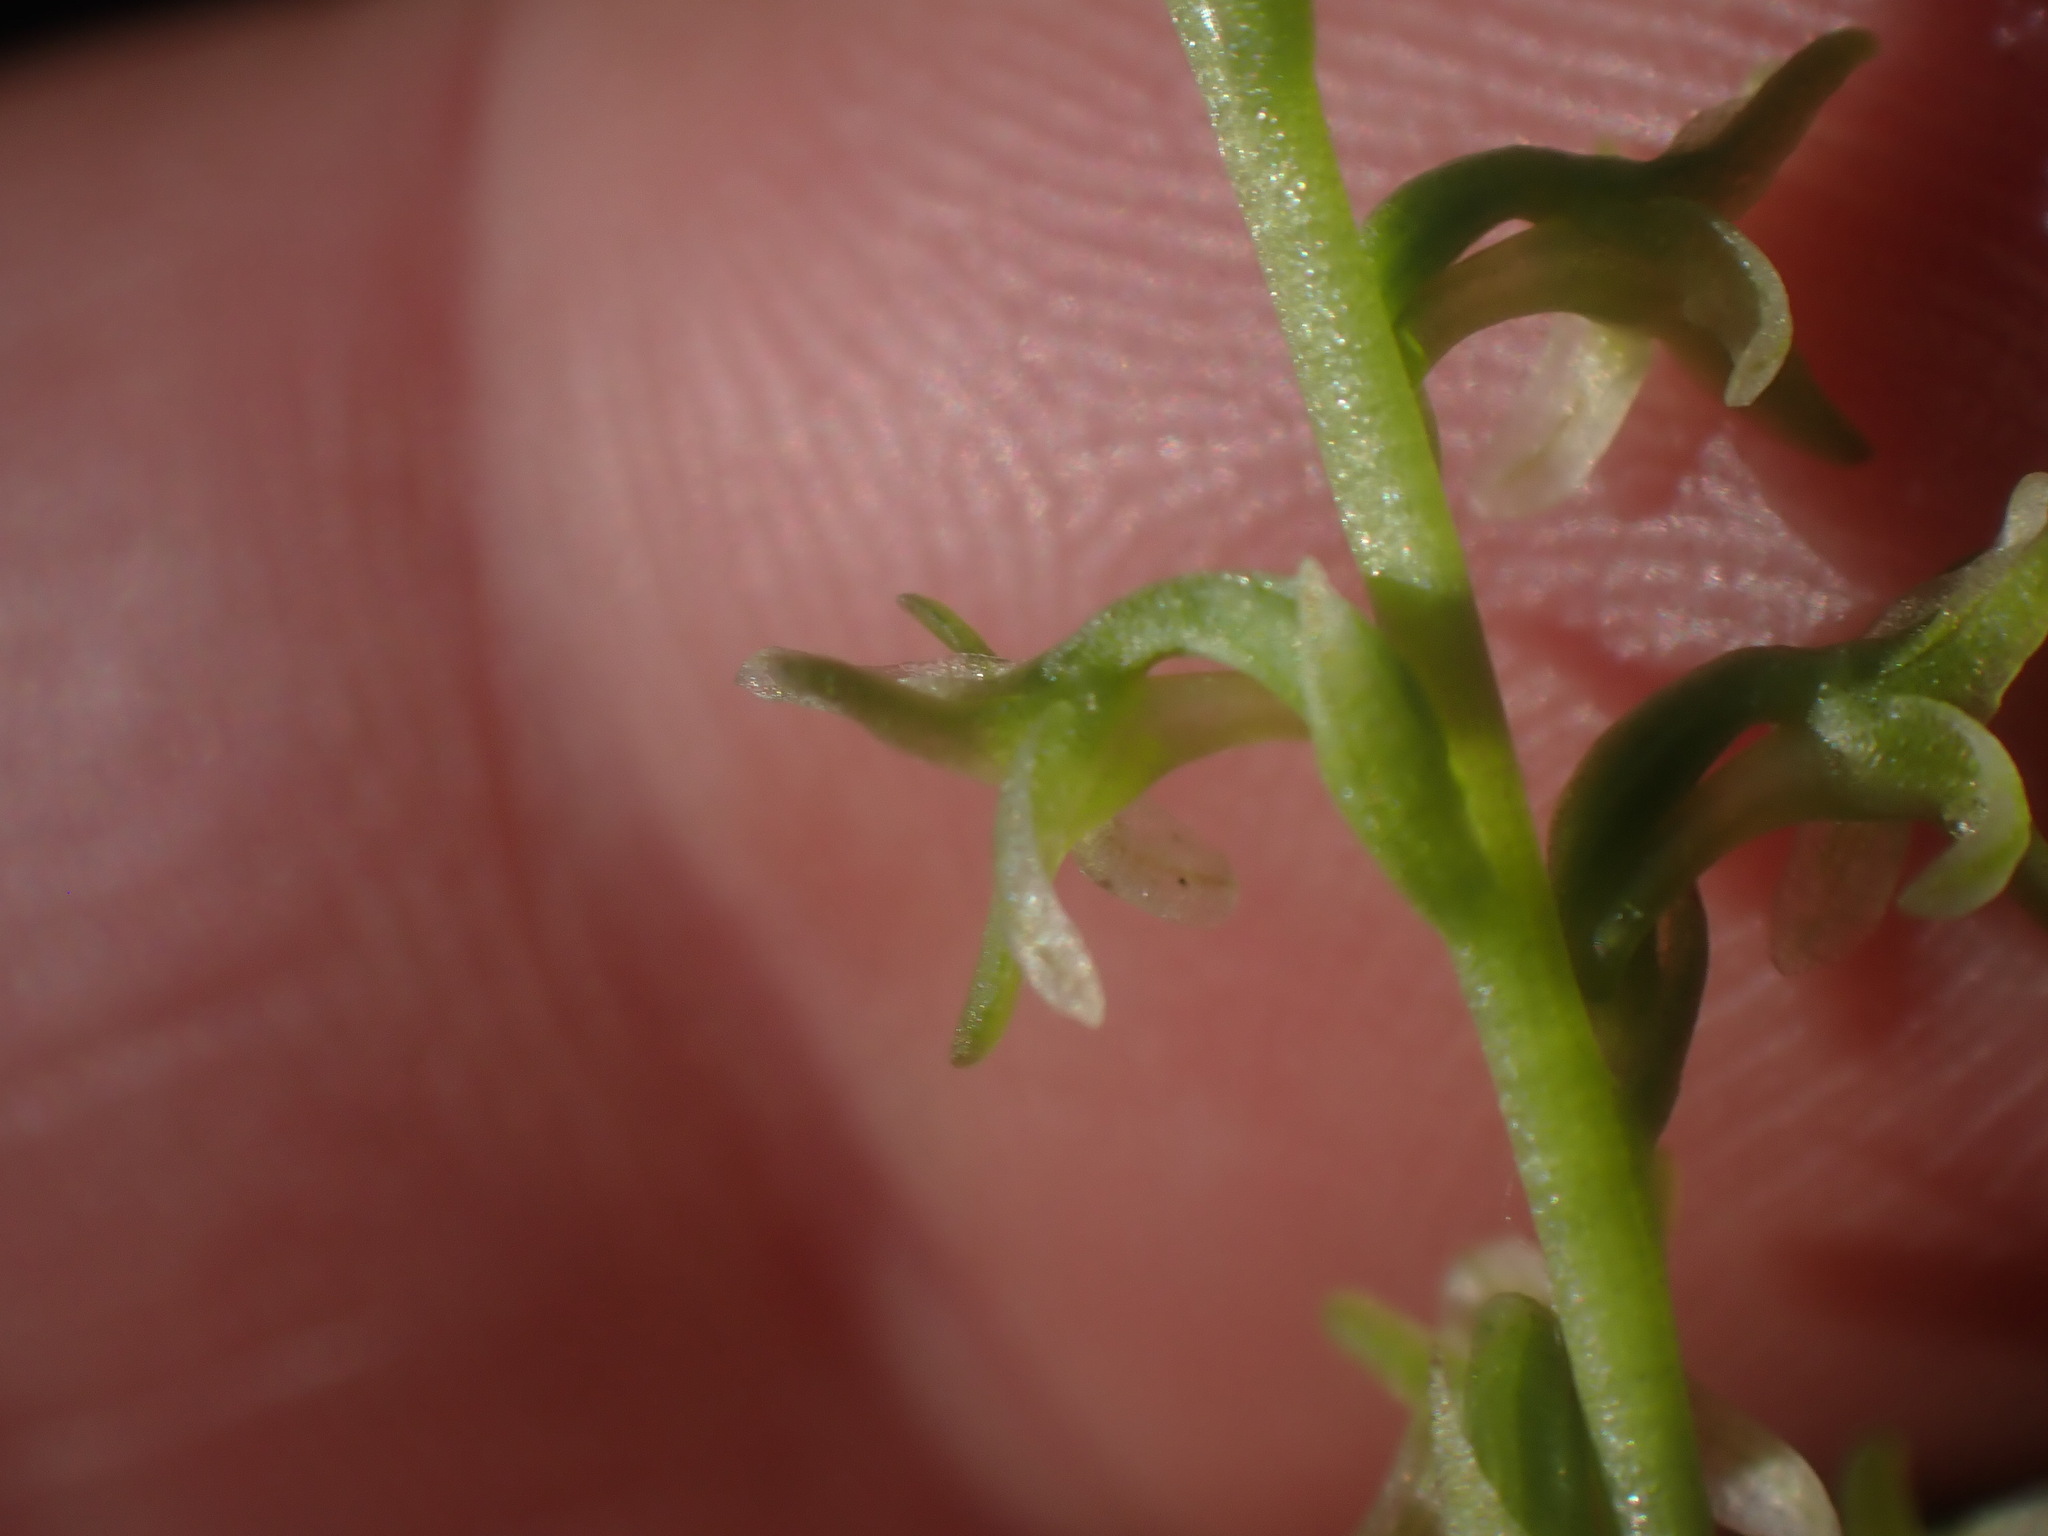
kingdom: Plantae
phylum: Tracheophyta
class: Liliopsida
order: Asparagales
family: Orchidaceae
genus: Platanthera
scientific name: Platanthera unalascensis
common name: Alaska bog orchid
